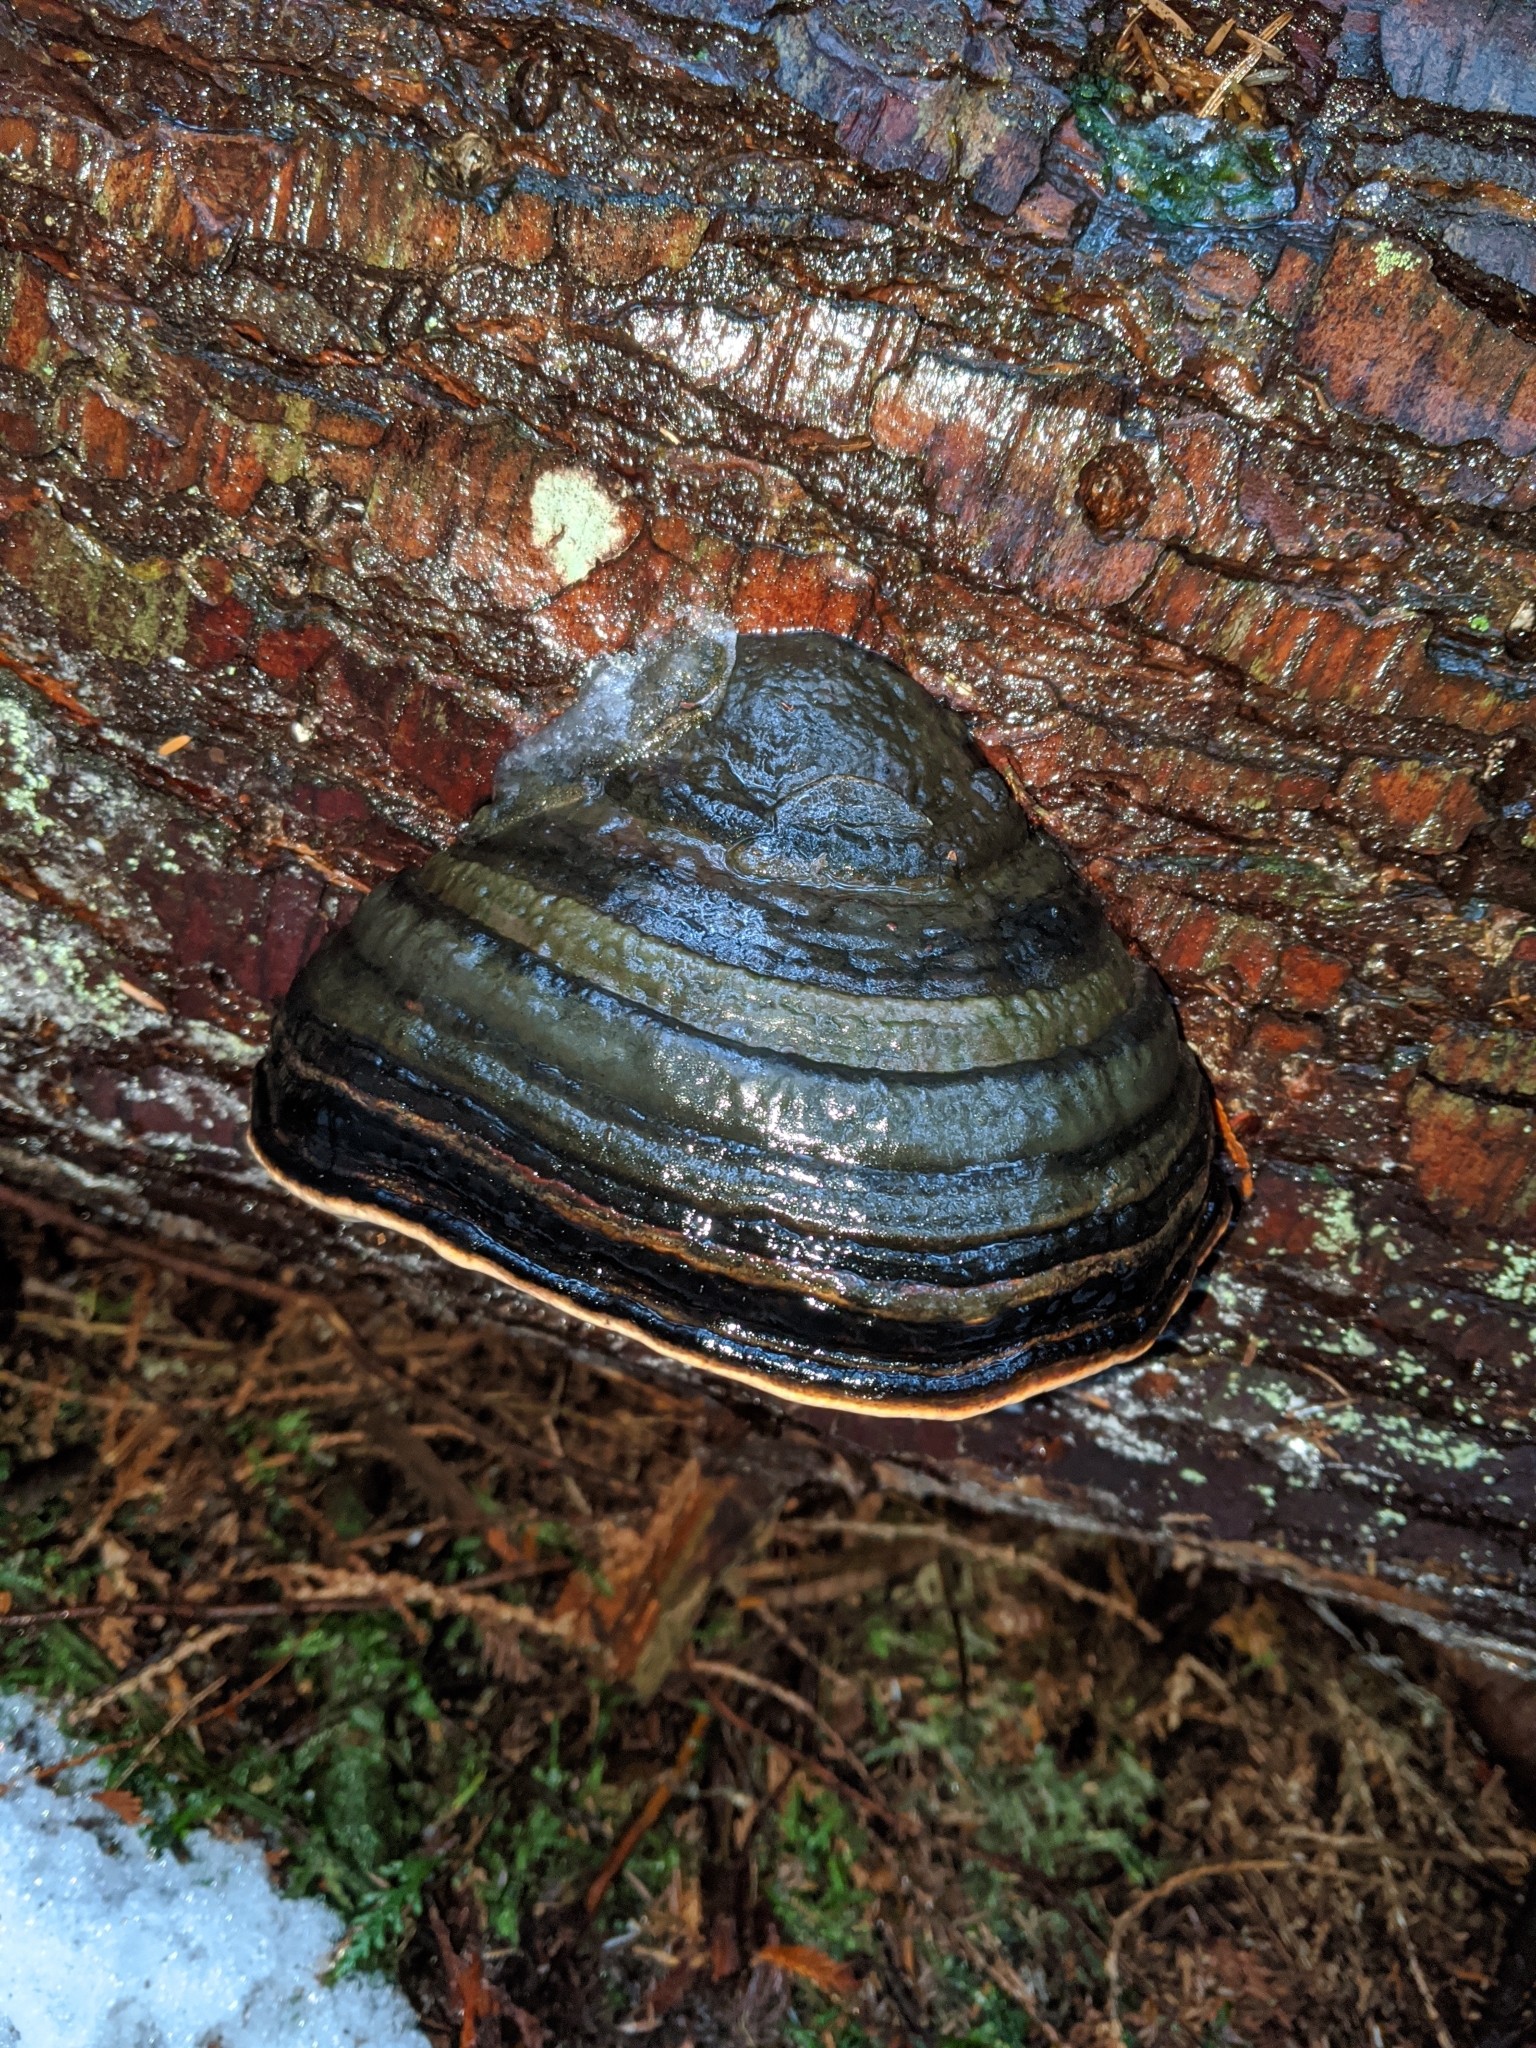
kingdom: Fungi
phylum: Basidiomycota
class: Agaricomycetes
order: Polyporales
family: Fomitopsidaceae
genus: Fomitopsis
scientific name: Fomitopsis mounceae
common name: Northern red belt
